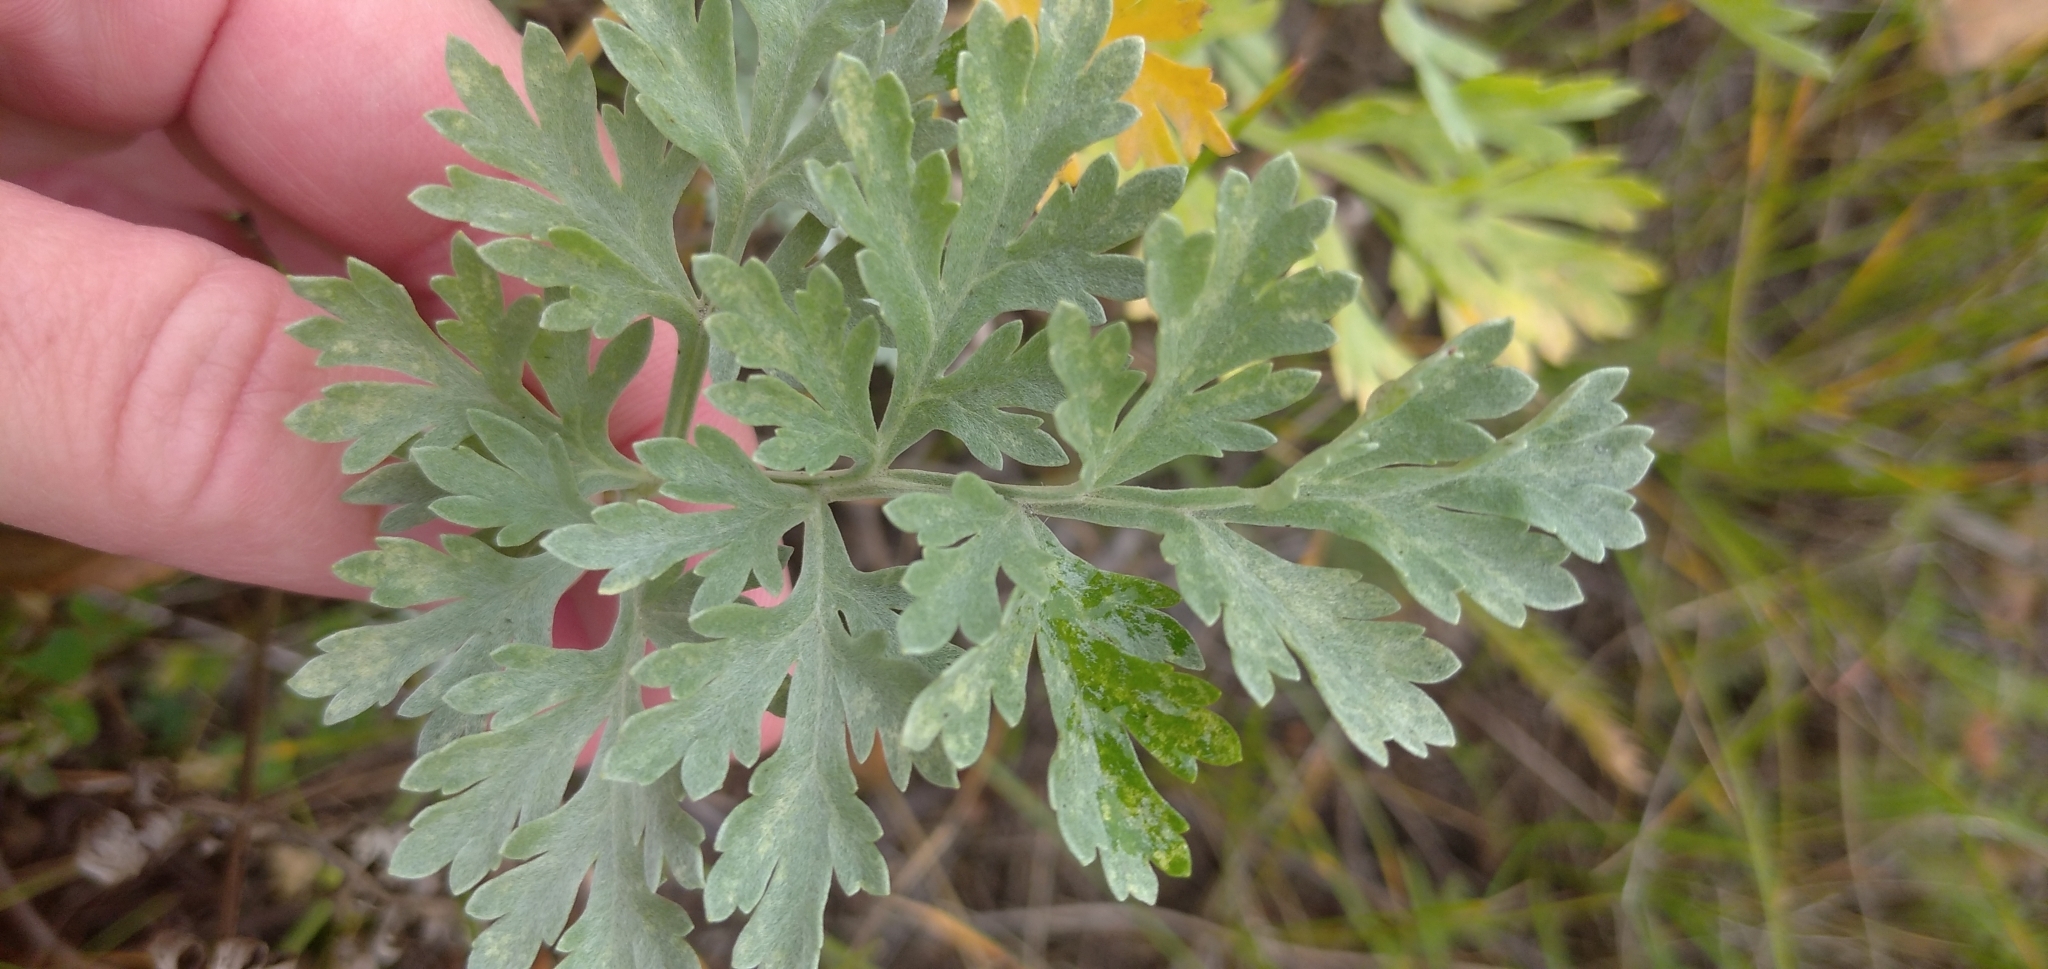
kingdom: Plantae
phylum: Tracheophyta
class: Magnoliopsida
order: Asterales
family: Asteraceae
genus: Artemisia
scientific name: Artemisia absinthium
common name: Wormwood
